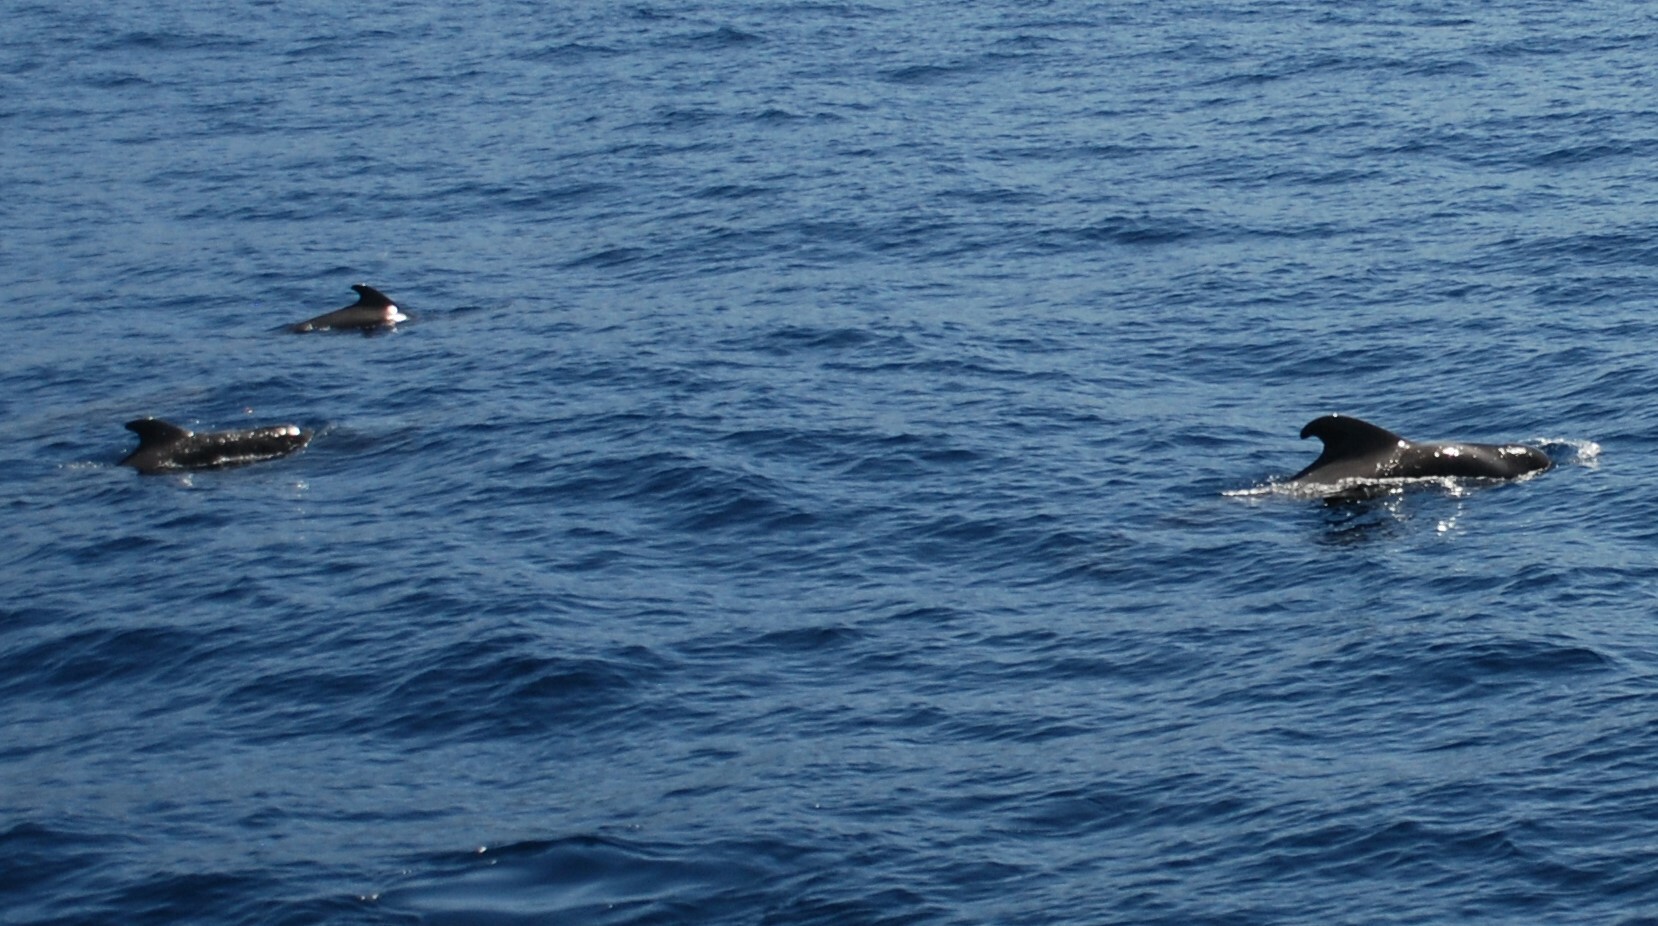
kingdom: Animalia
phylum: Chordata
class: Mammalia
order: Cetacea
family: Delphinidae
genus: Globicephala
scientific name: Globicephala macrorhynchus
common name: Short-finned pilot whale
